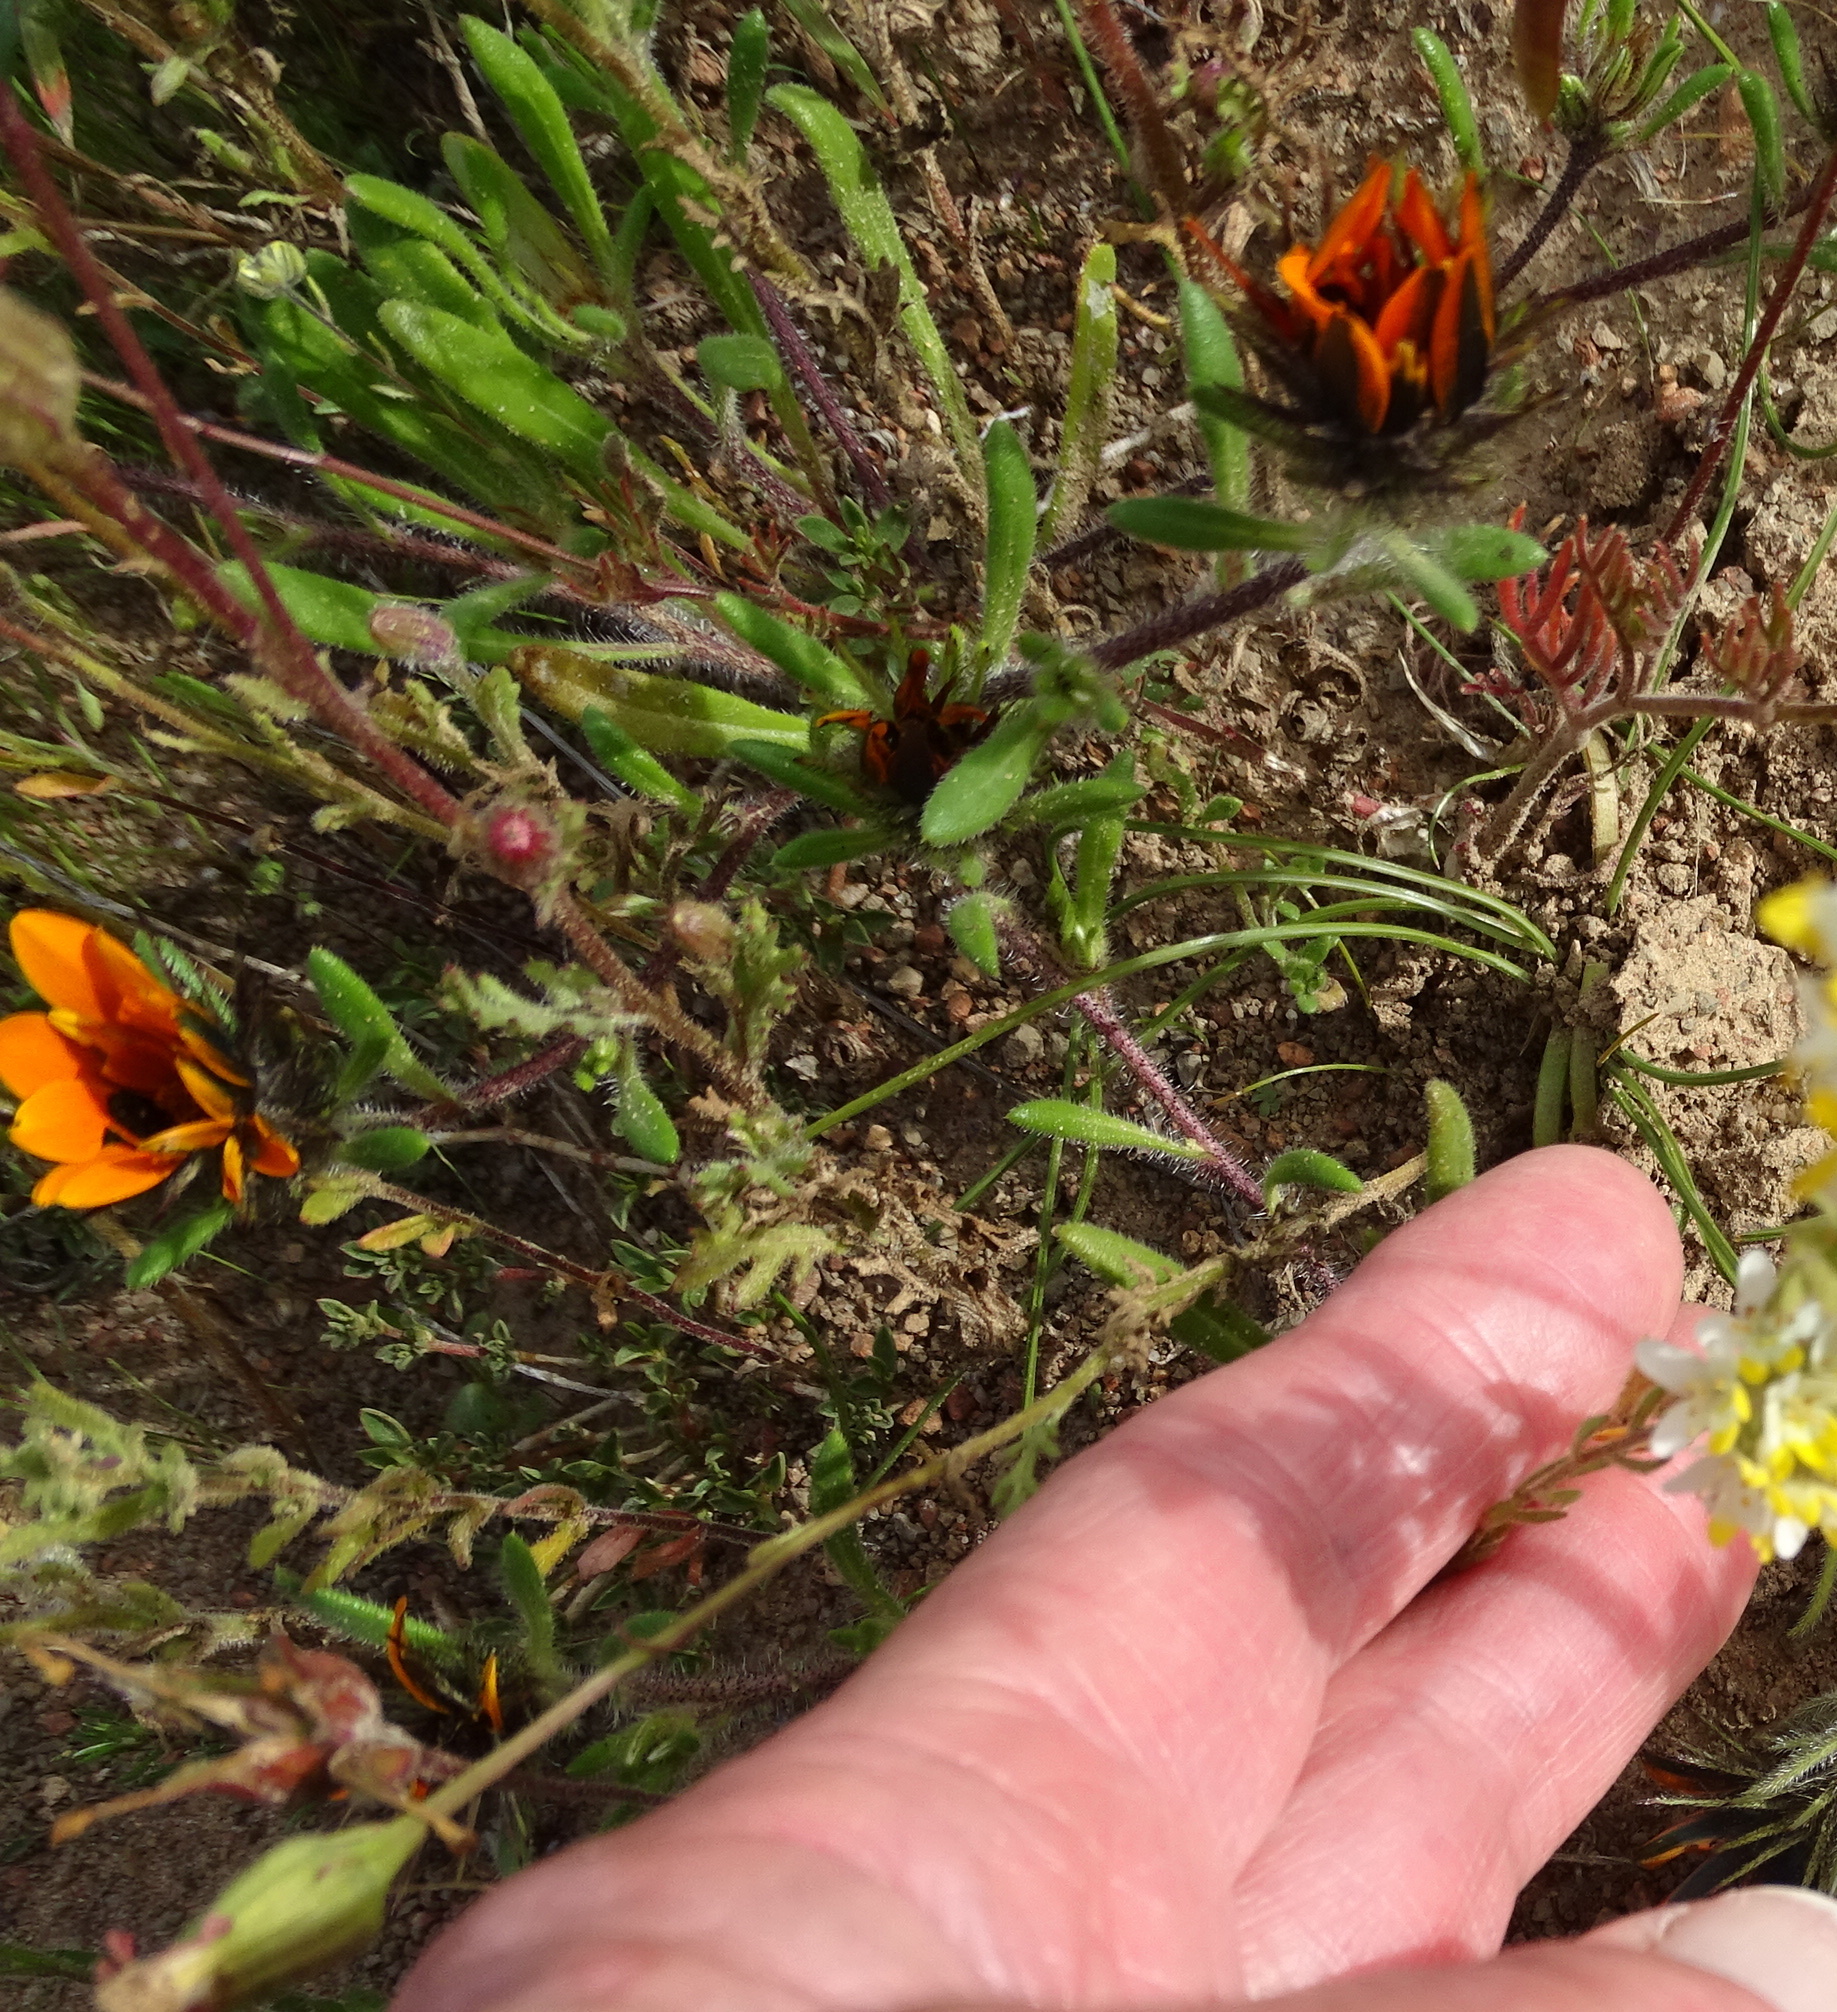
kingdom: Plantae
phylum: Tracheophyta
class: Magnoliopsida
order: Asterales
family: Asteraceae
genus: Gorteria
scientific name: Gorteria diffusa
